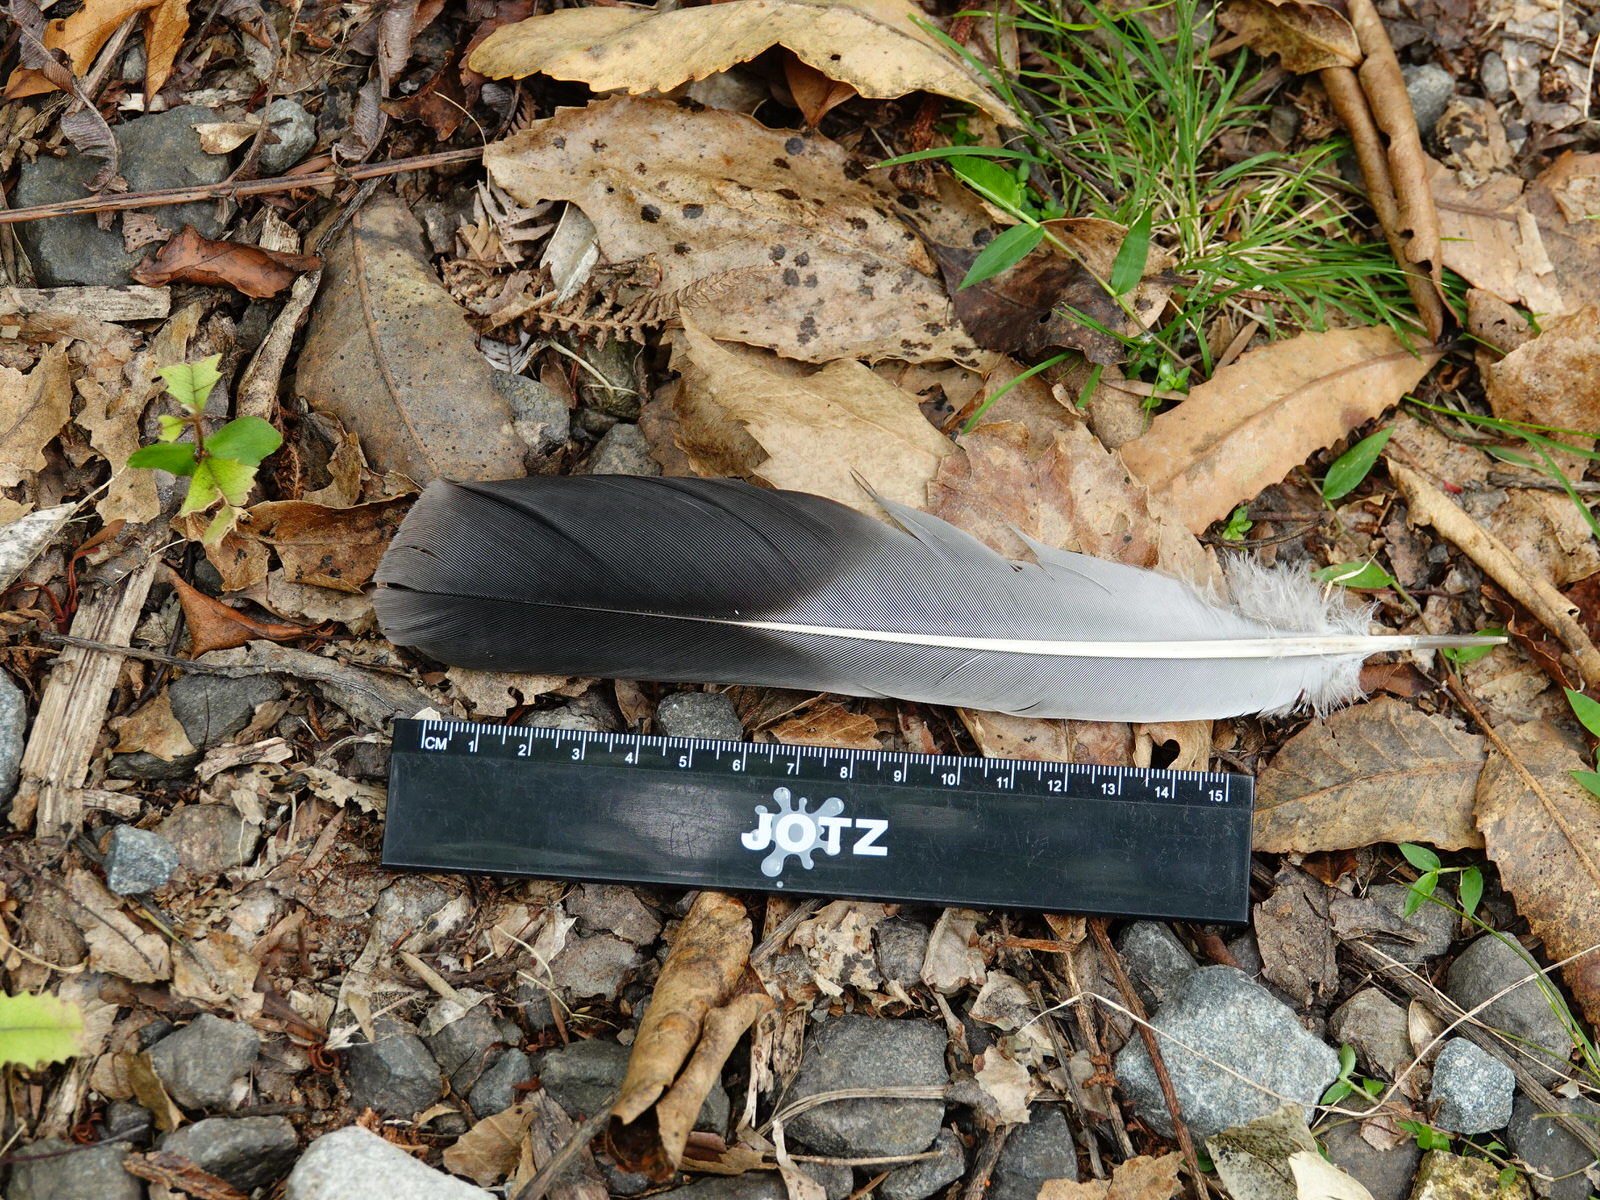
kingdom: Animalia
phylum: Chordata
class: Aves
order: Columbiformes
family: Columbidae
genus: Hemiphaga
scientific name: Hemiphaga novaeseelandiae
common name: New zealand pigeon
